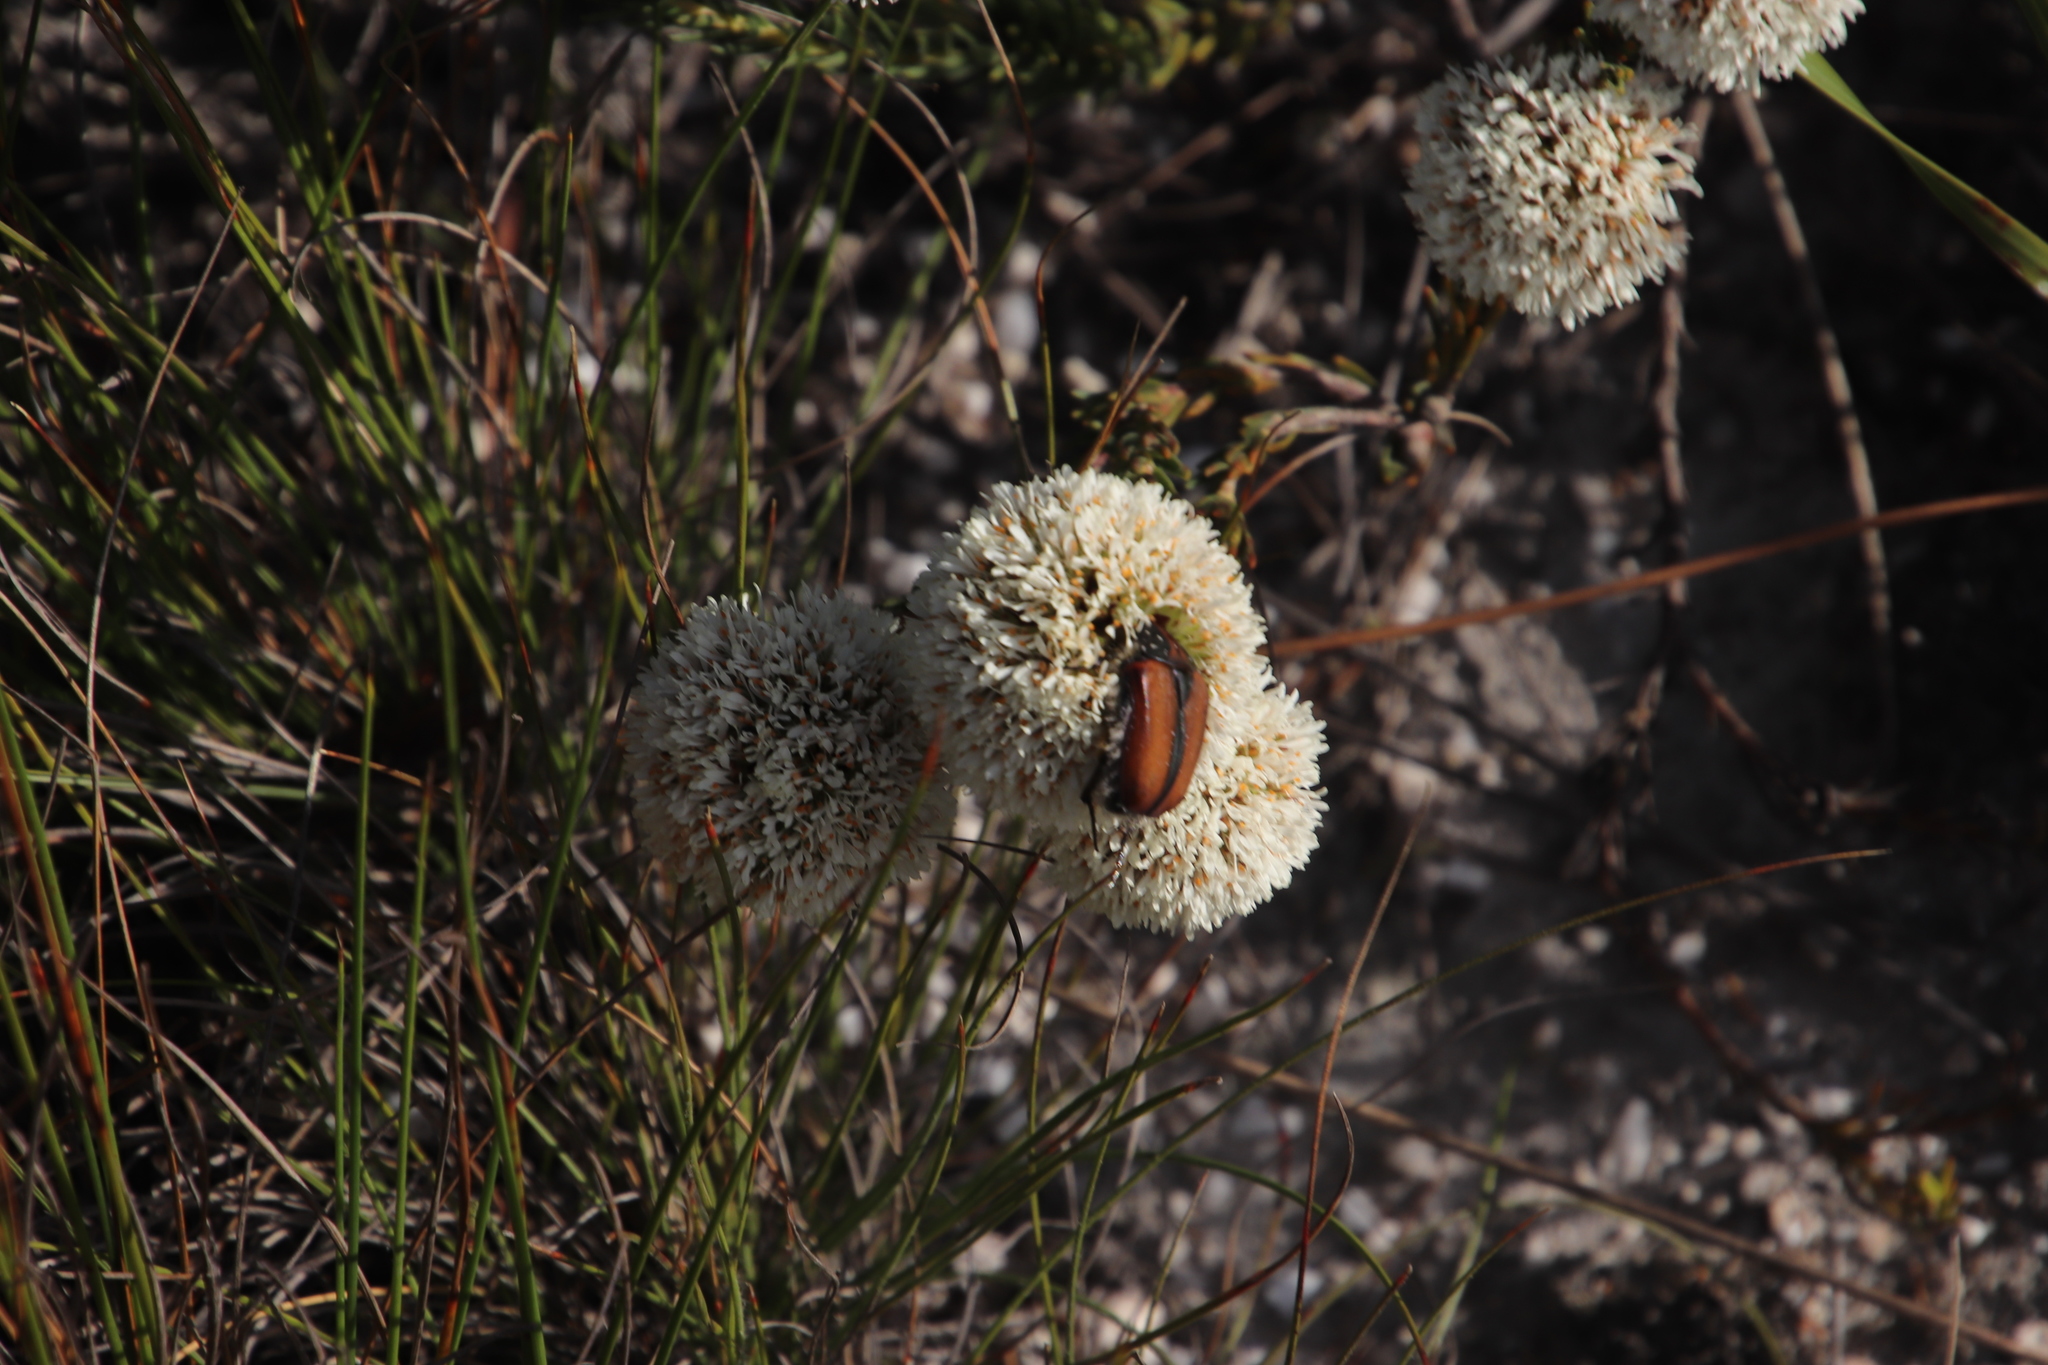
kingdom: Plantae
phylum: Tracheophyta
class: Magnoliopsida
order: Sapindales
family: Rutaceae
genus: Agathosma
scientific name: Agathosma bifida
